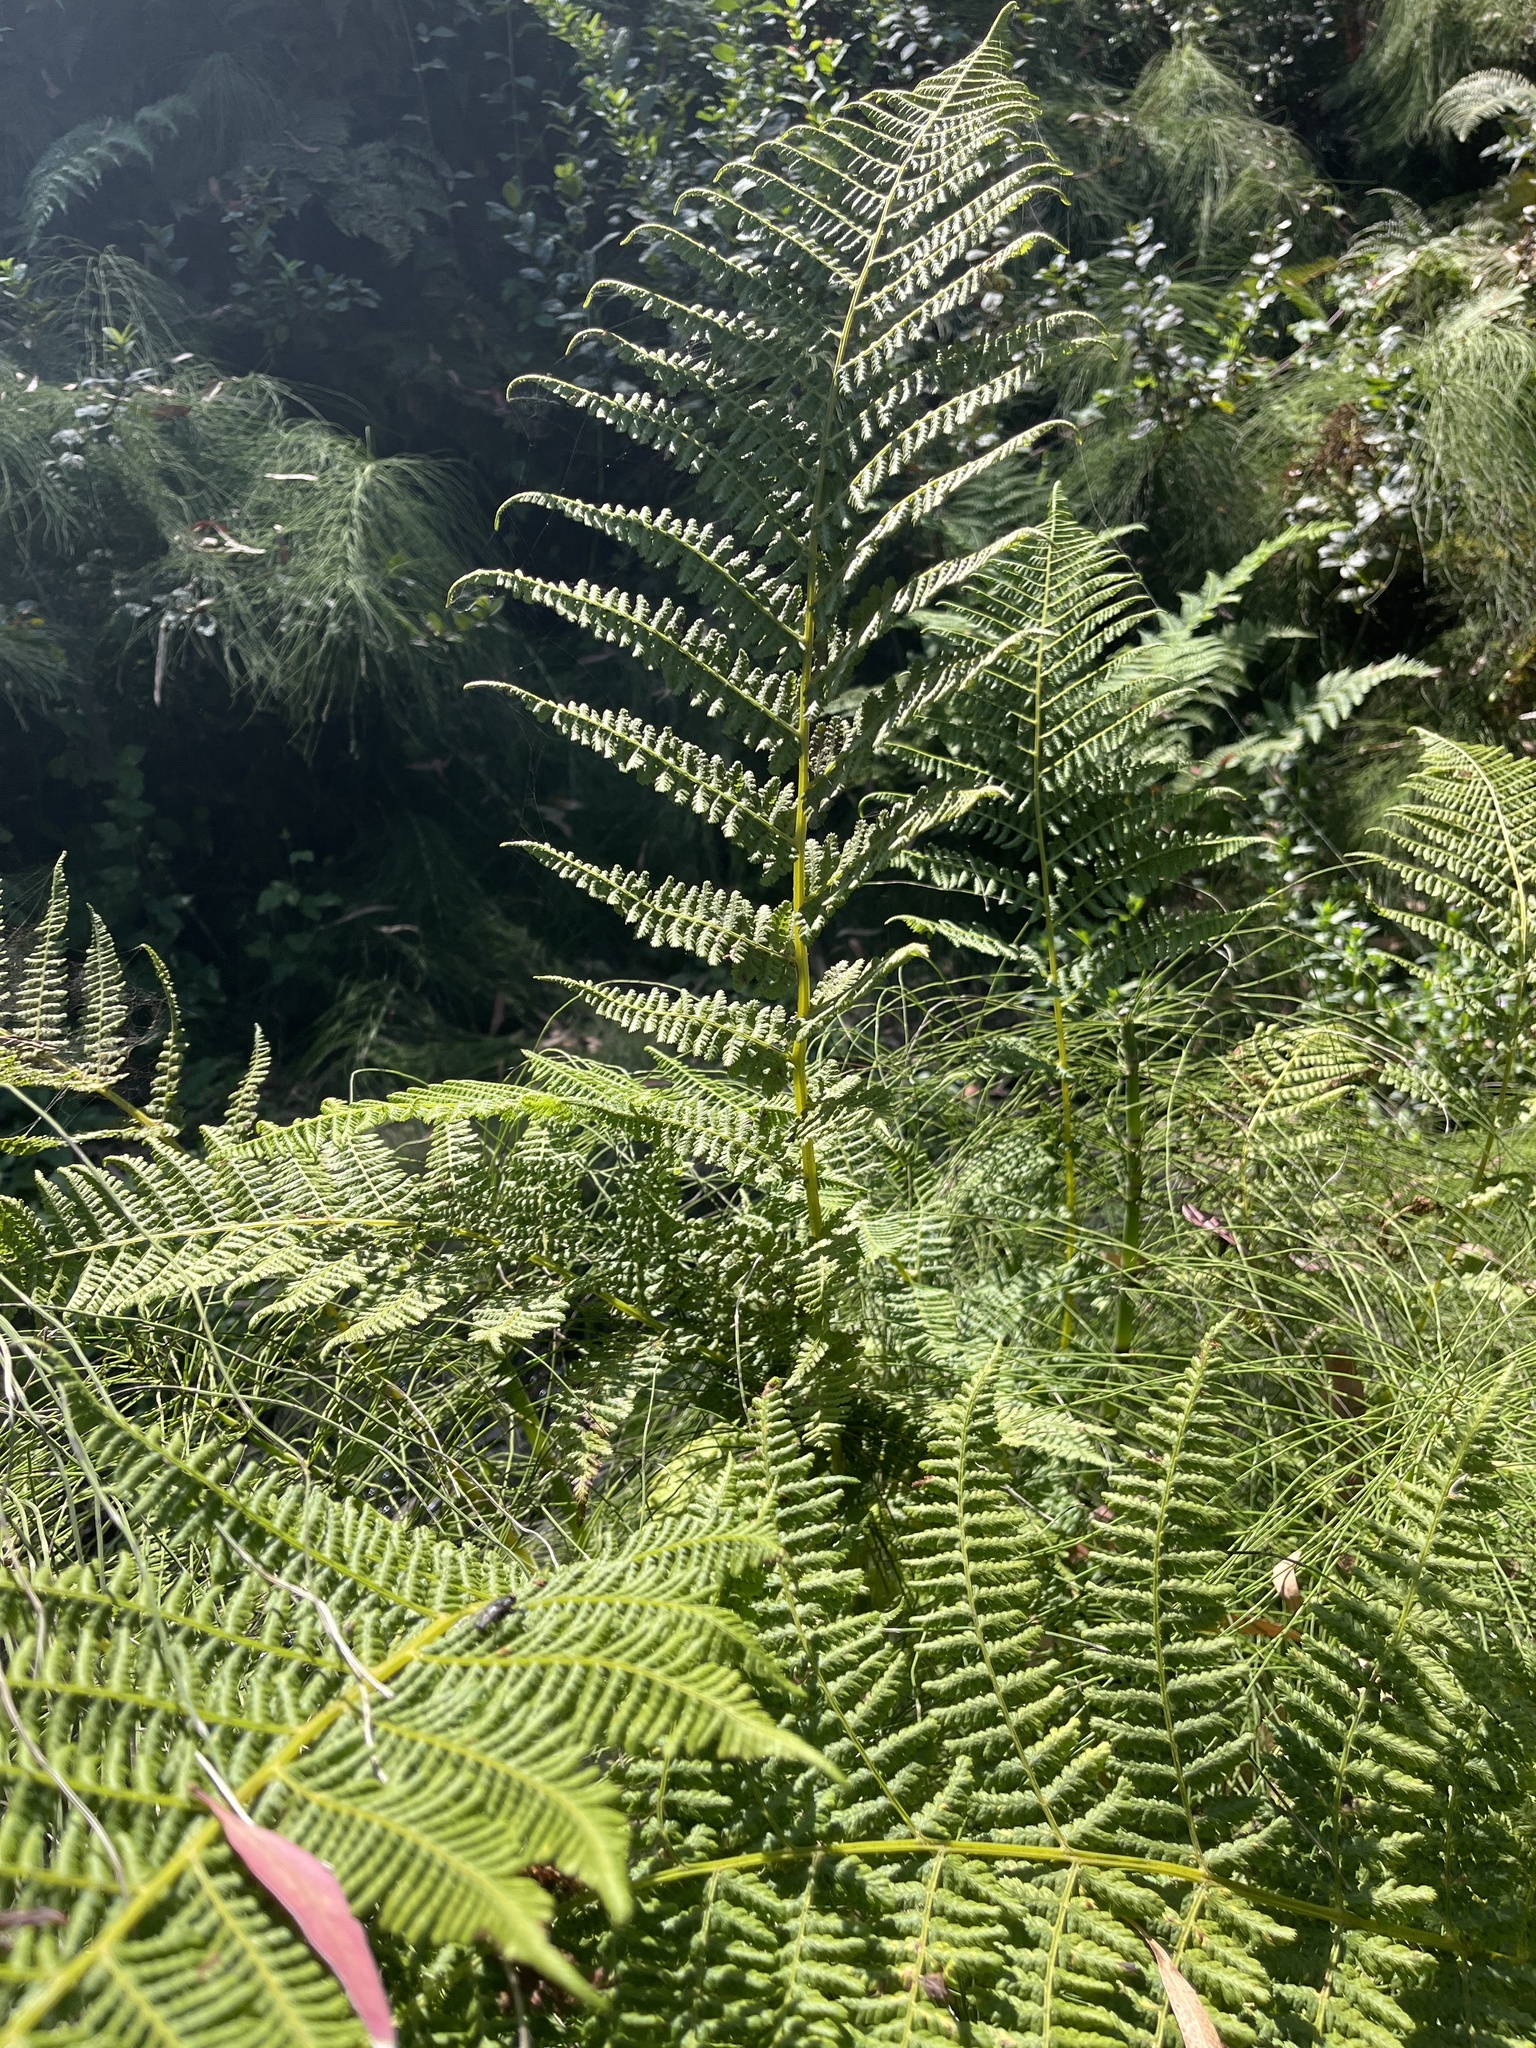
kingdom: Plantae
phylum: Tracheophyta
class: Polypodiopsida
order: Polypodiales
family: Athyriaceae
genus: Athyrium
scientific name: Athyrium cyclosorum
